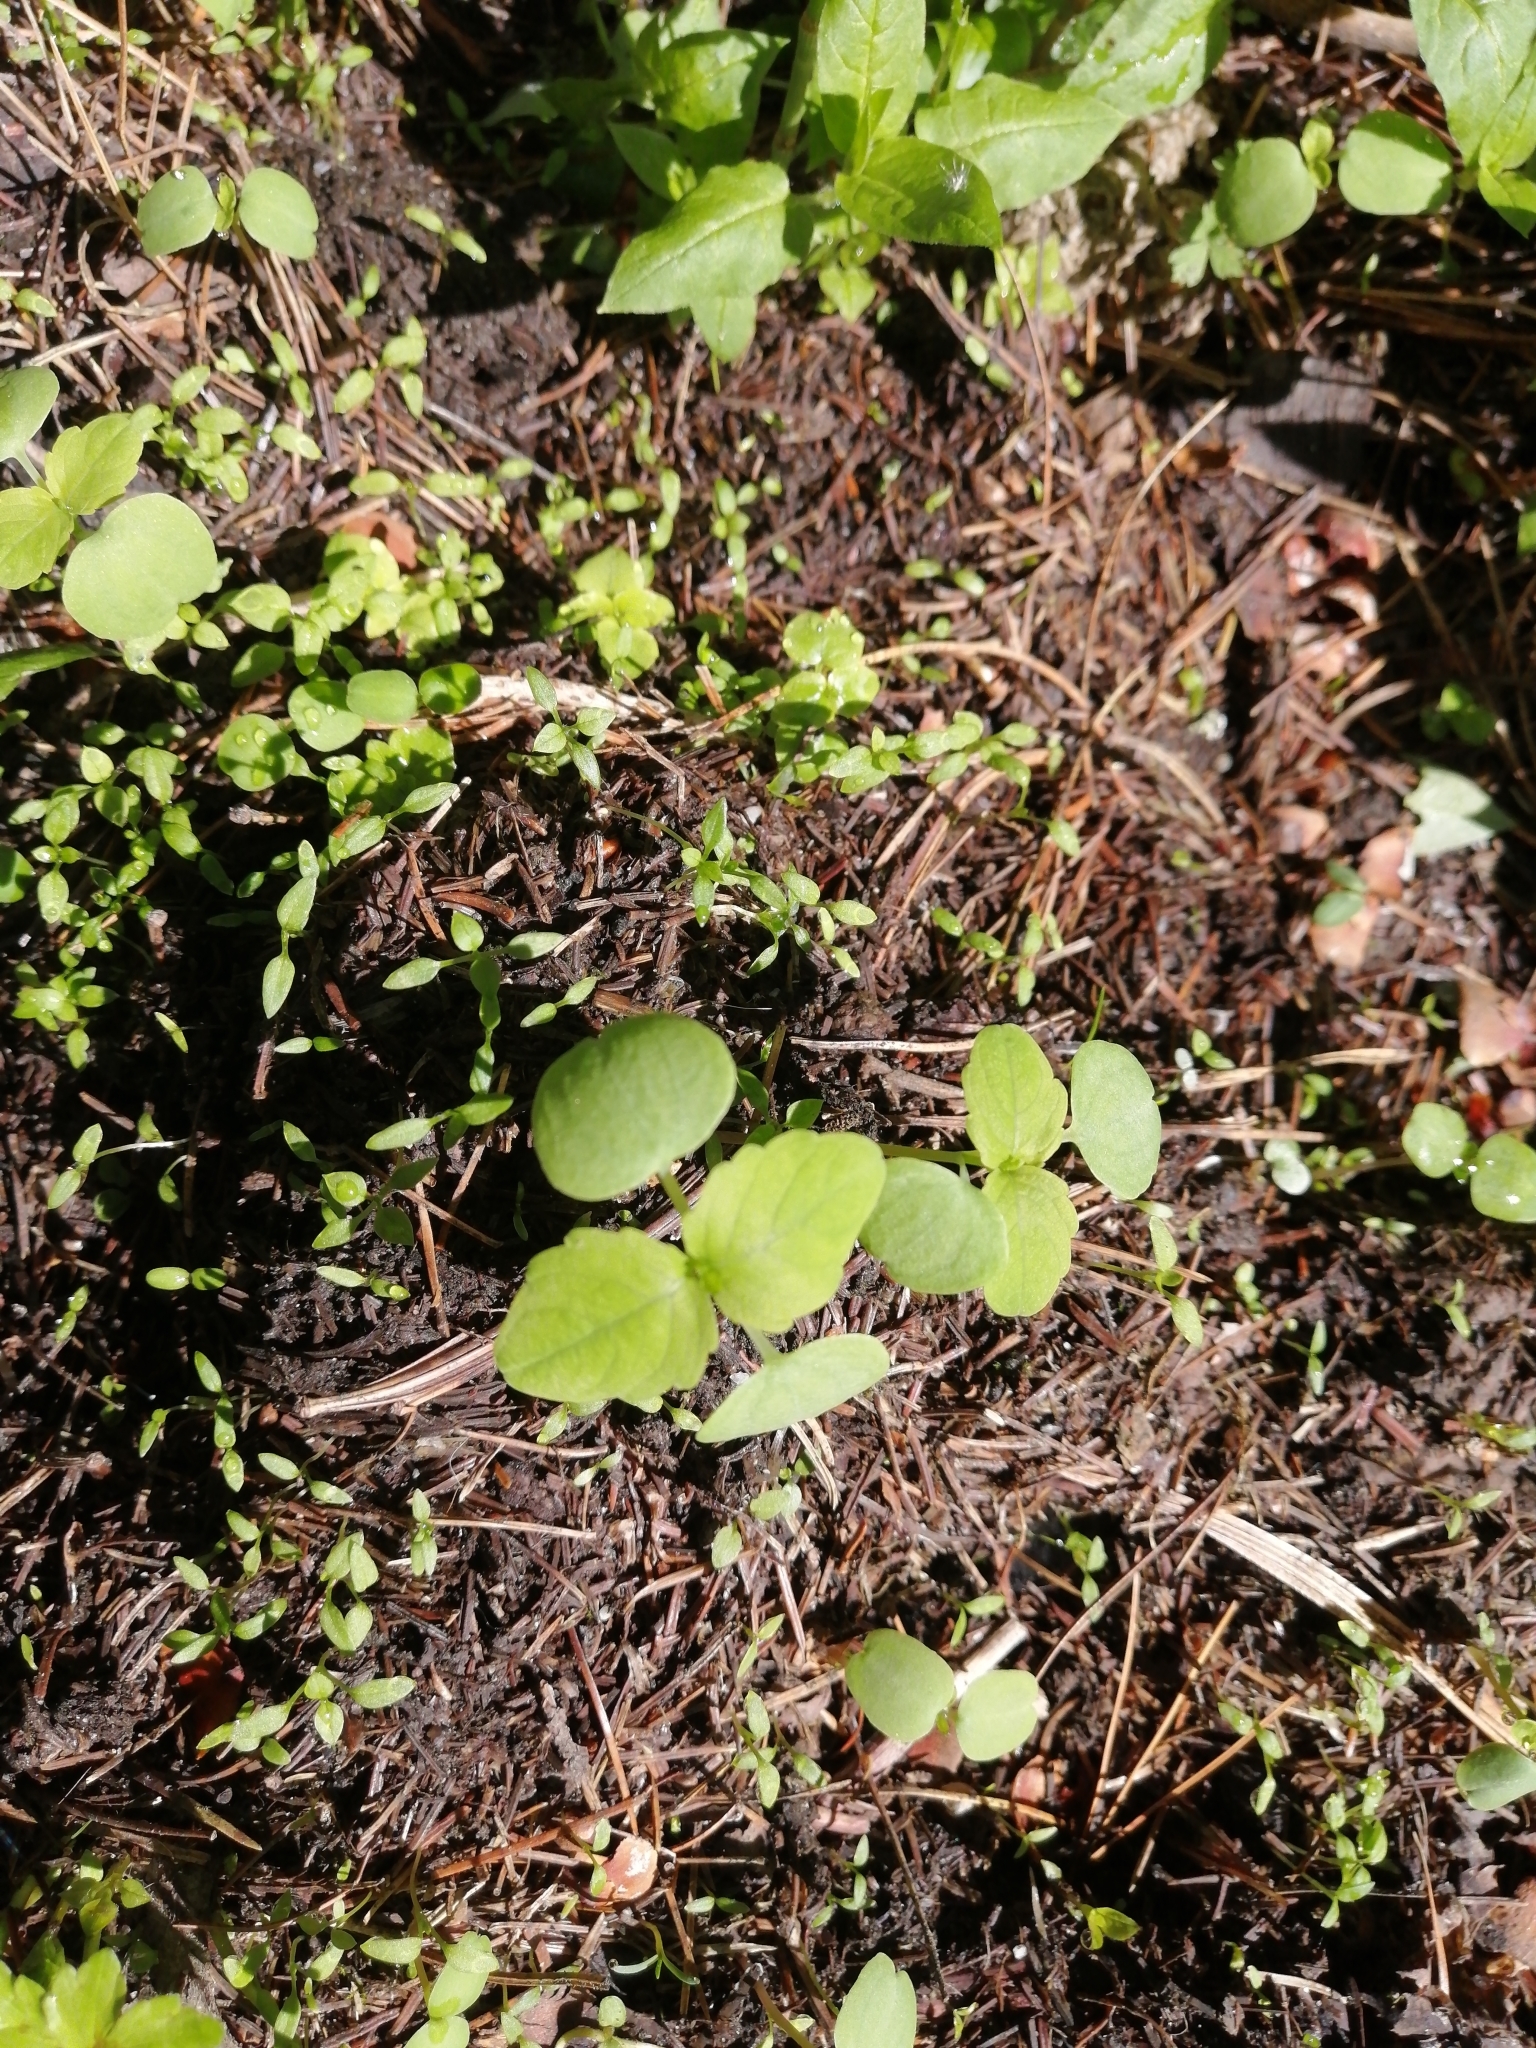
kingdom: Plantae
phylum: Tracheophyta
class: Magnoliopsida
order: Ericales
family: Balsaminaceae
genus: Impatiens
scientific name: Impatiens noli-tangere
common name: Touch-me-not balsam
